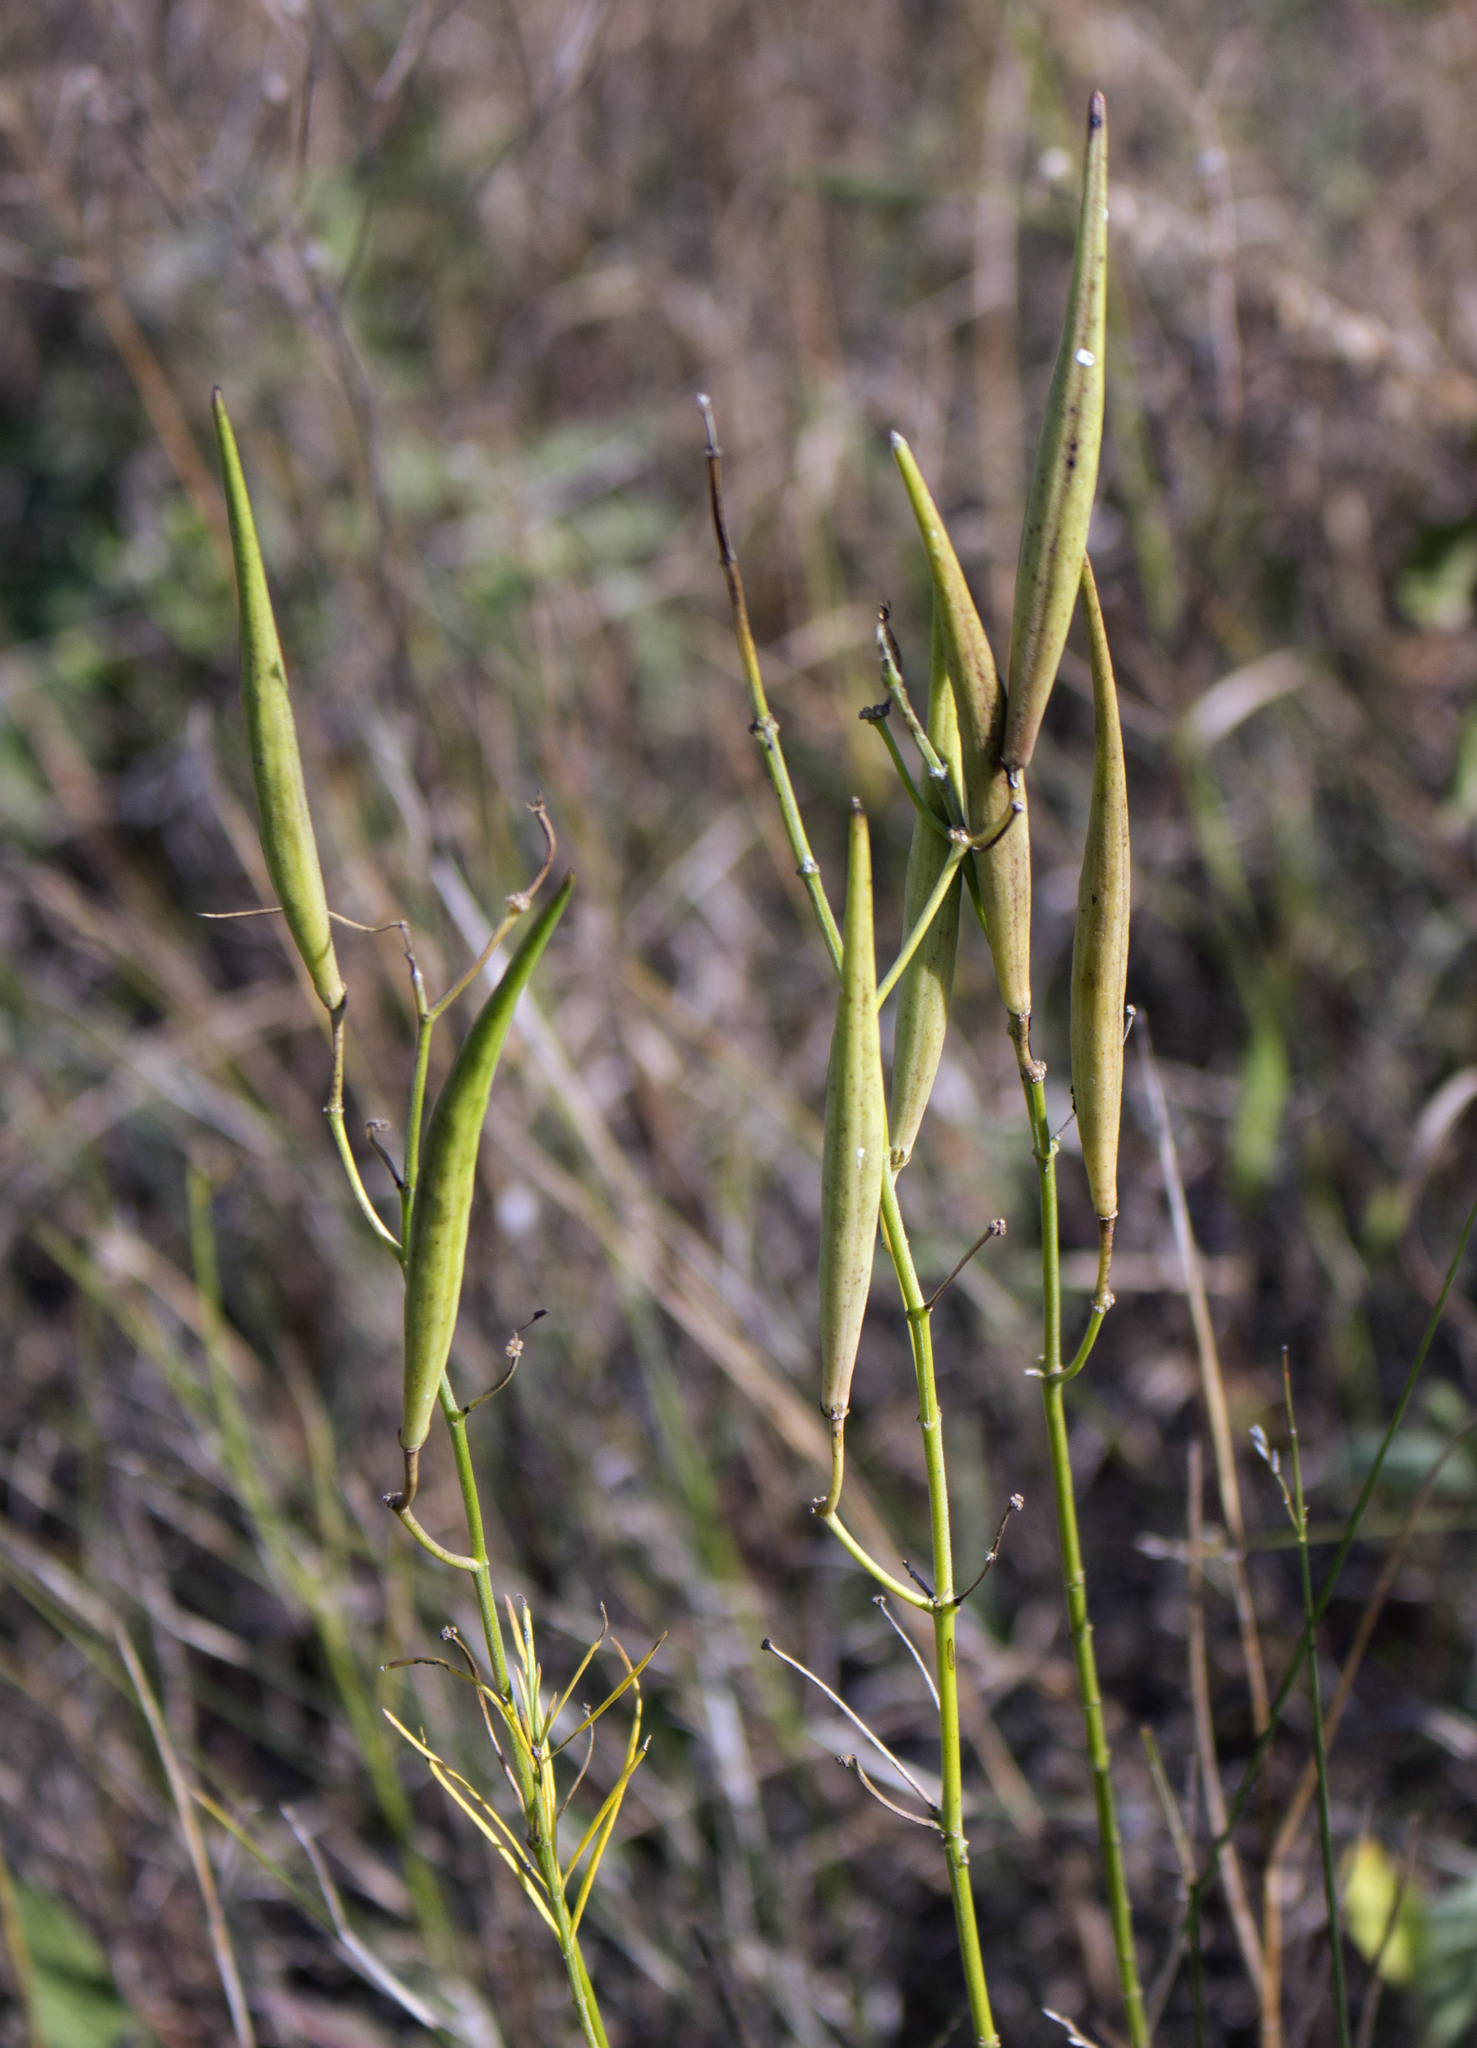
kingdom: Plantae
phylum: Tracheophyta
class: Magnoliopsida
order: Gentianales
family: Apocynaceae
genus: Asclepias
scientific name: Asclepias verticillata
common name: Eastern whorled milkweed
